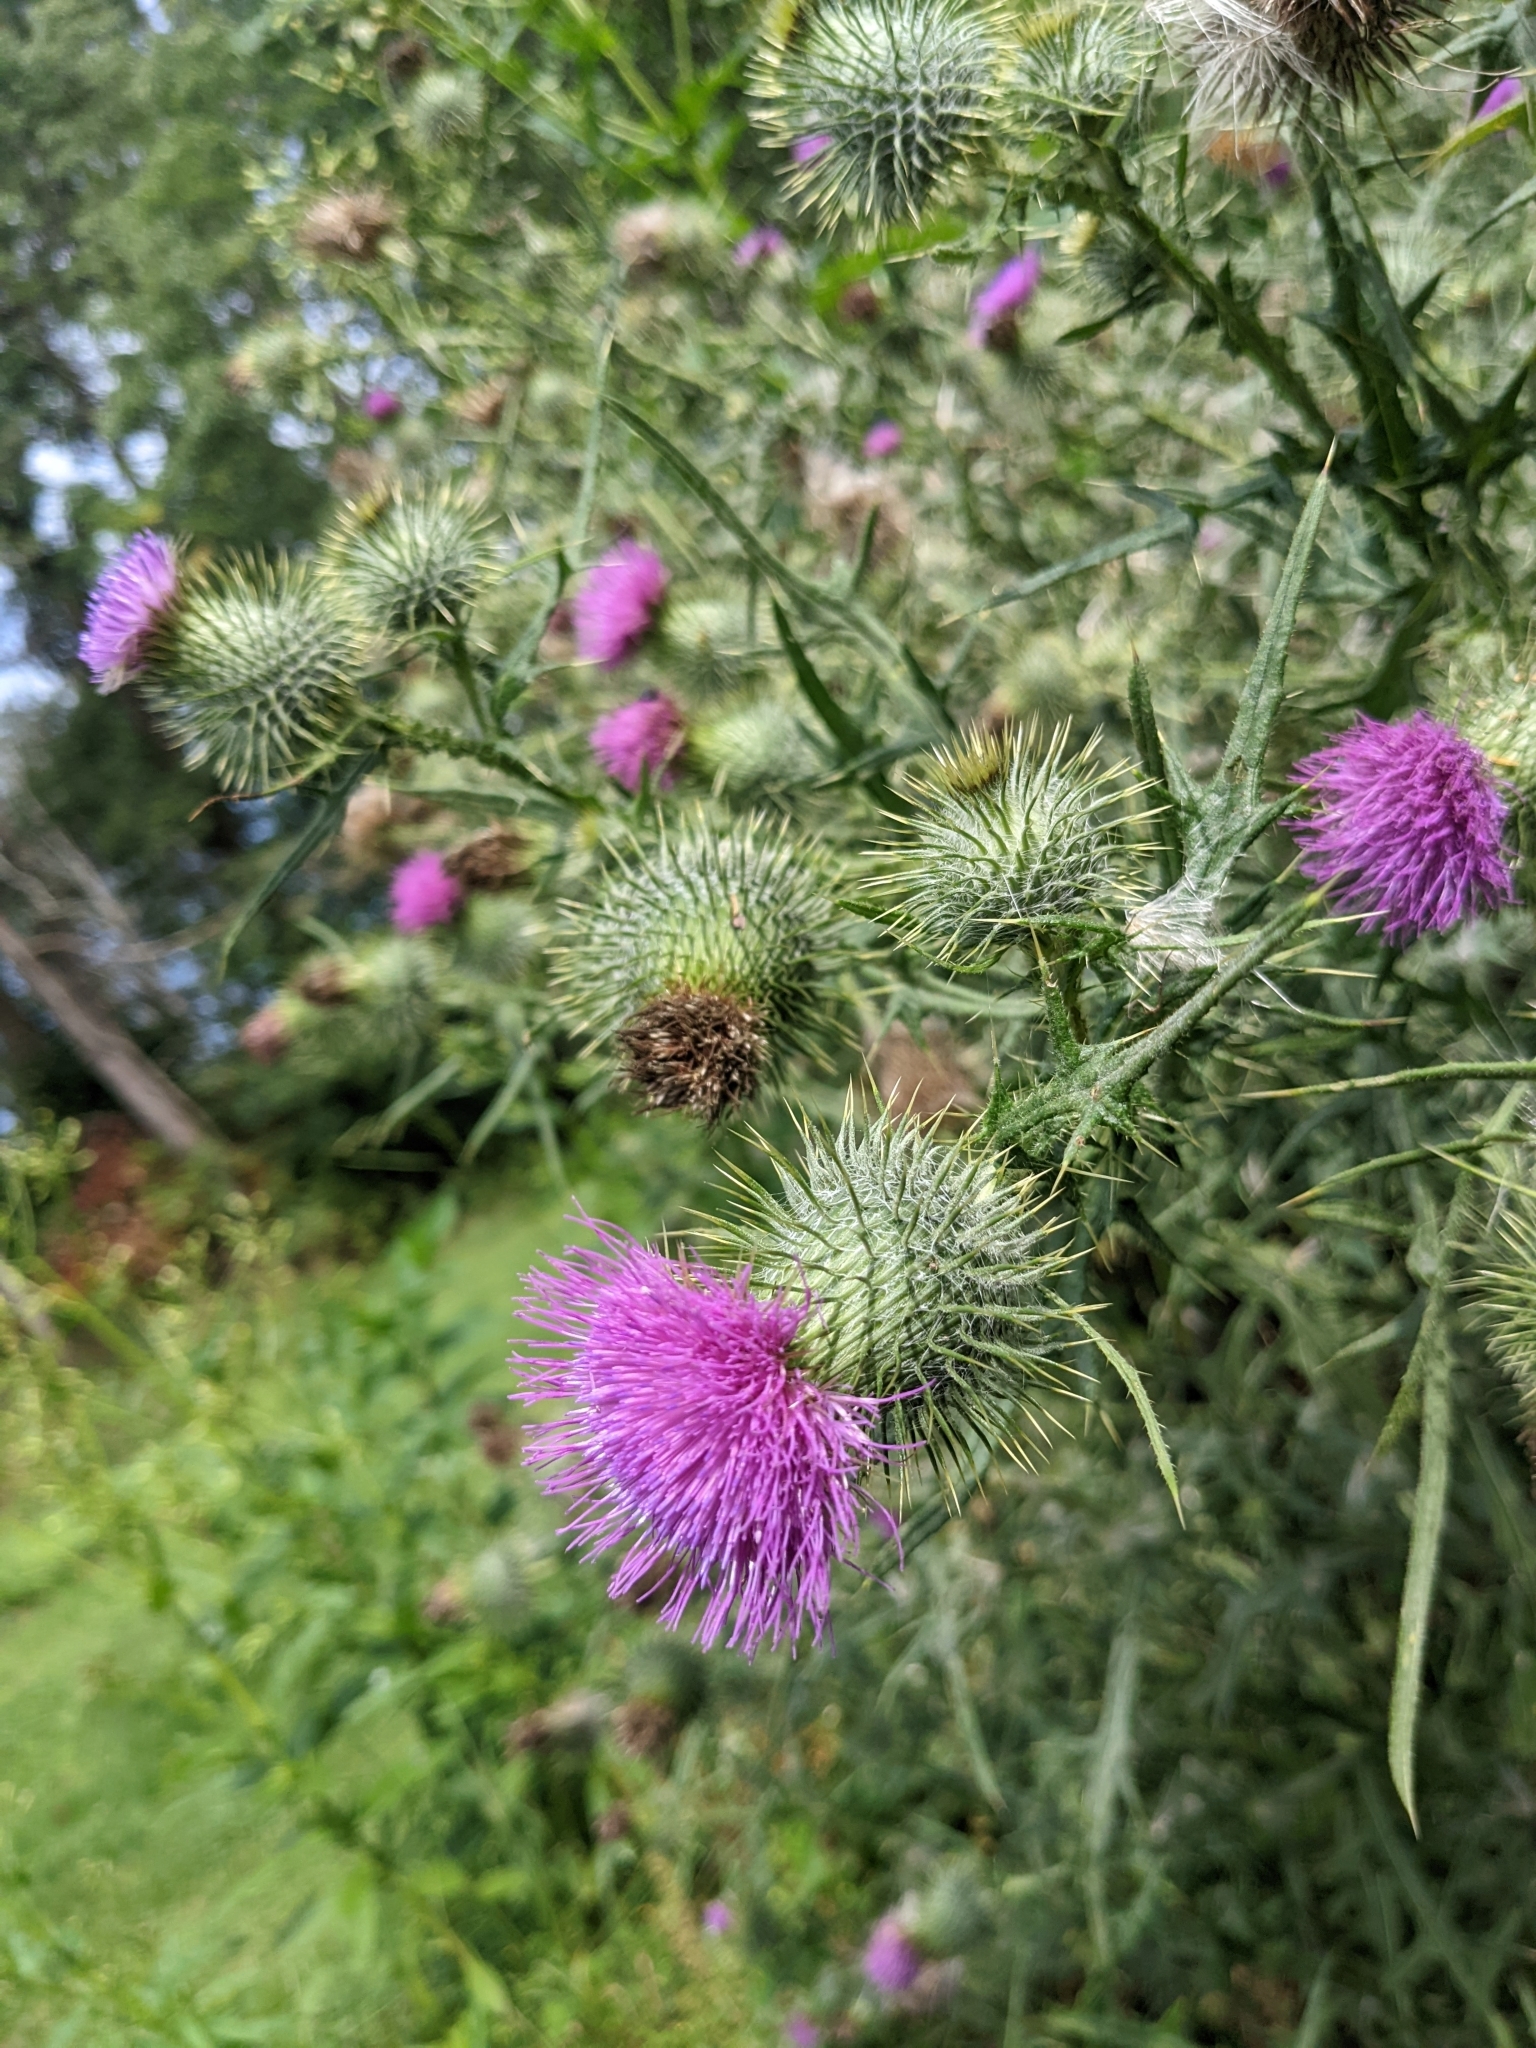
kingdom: Plantae
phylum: Tracheophyta
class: Magnoliopsida
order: Asterales
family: Asteraceae
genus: Cirsium
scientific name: Cirsium vulgare
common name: Bull thistle
